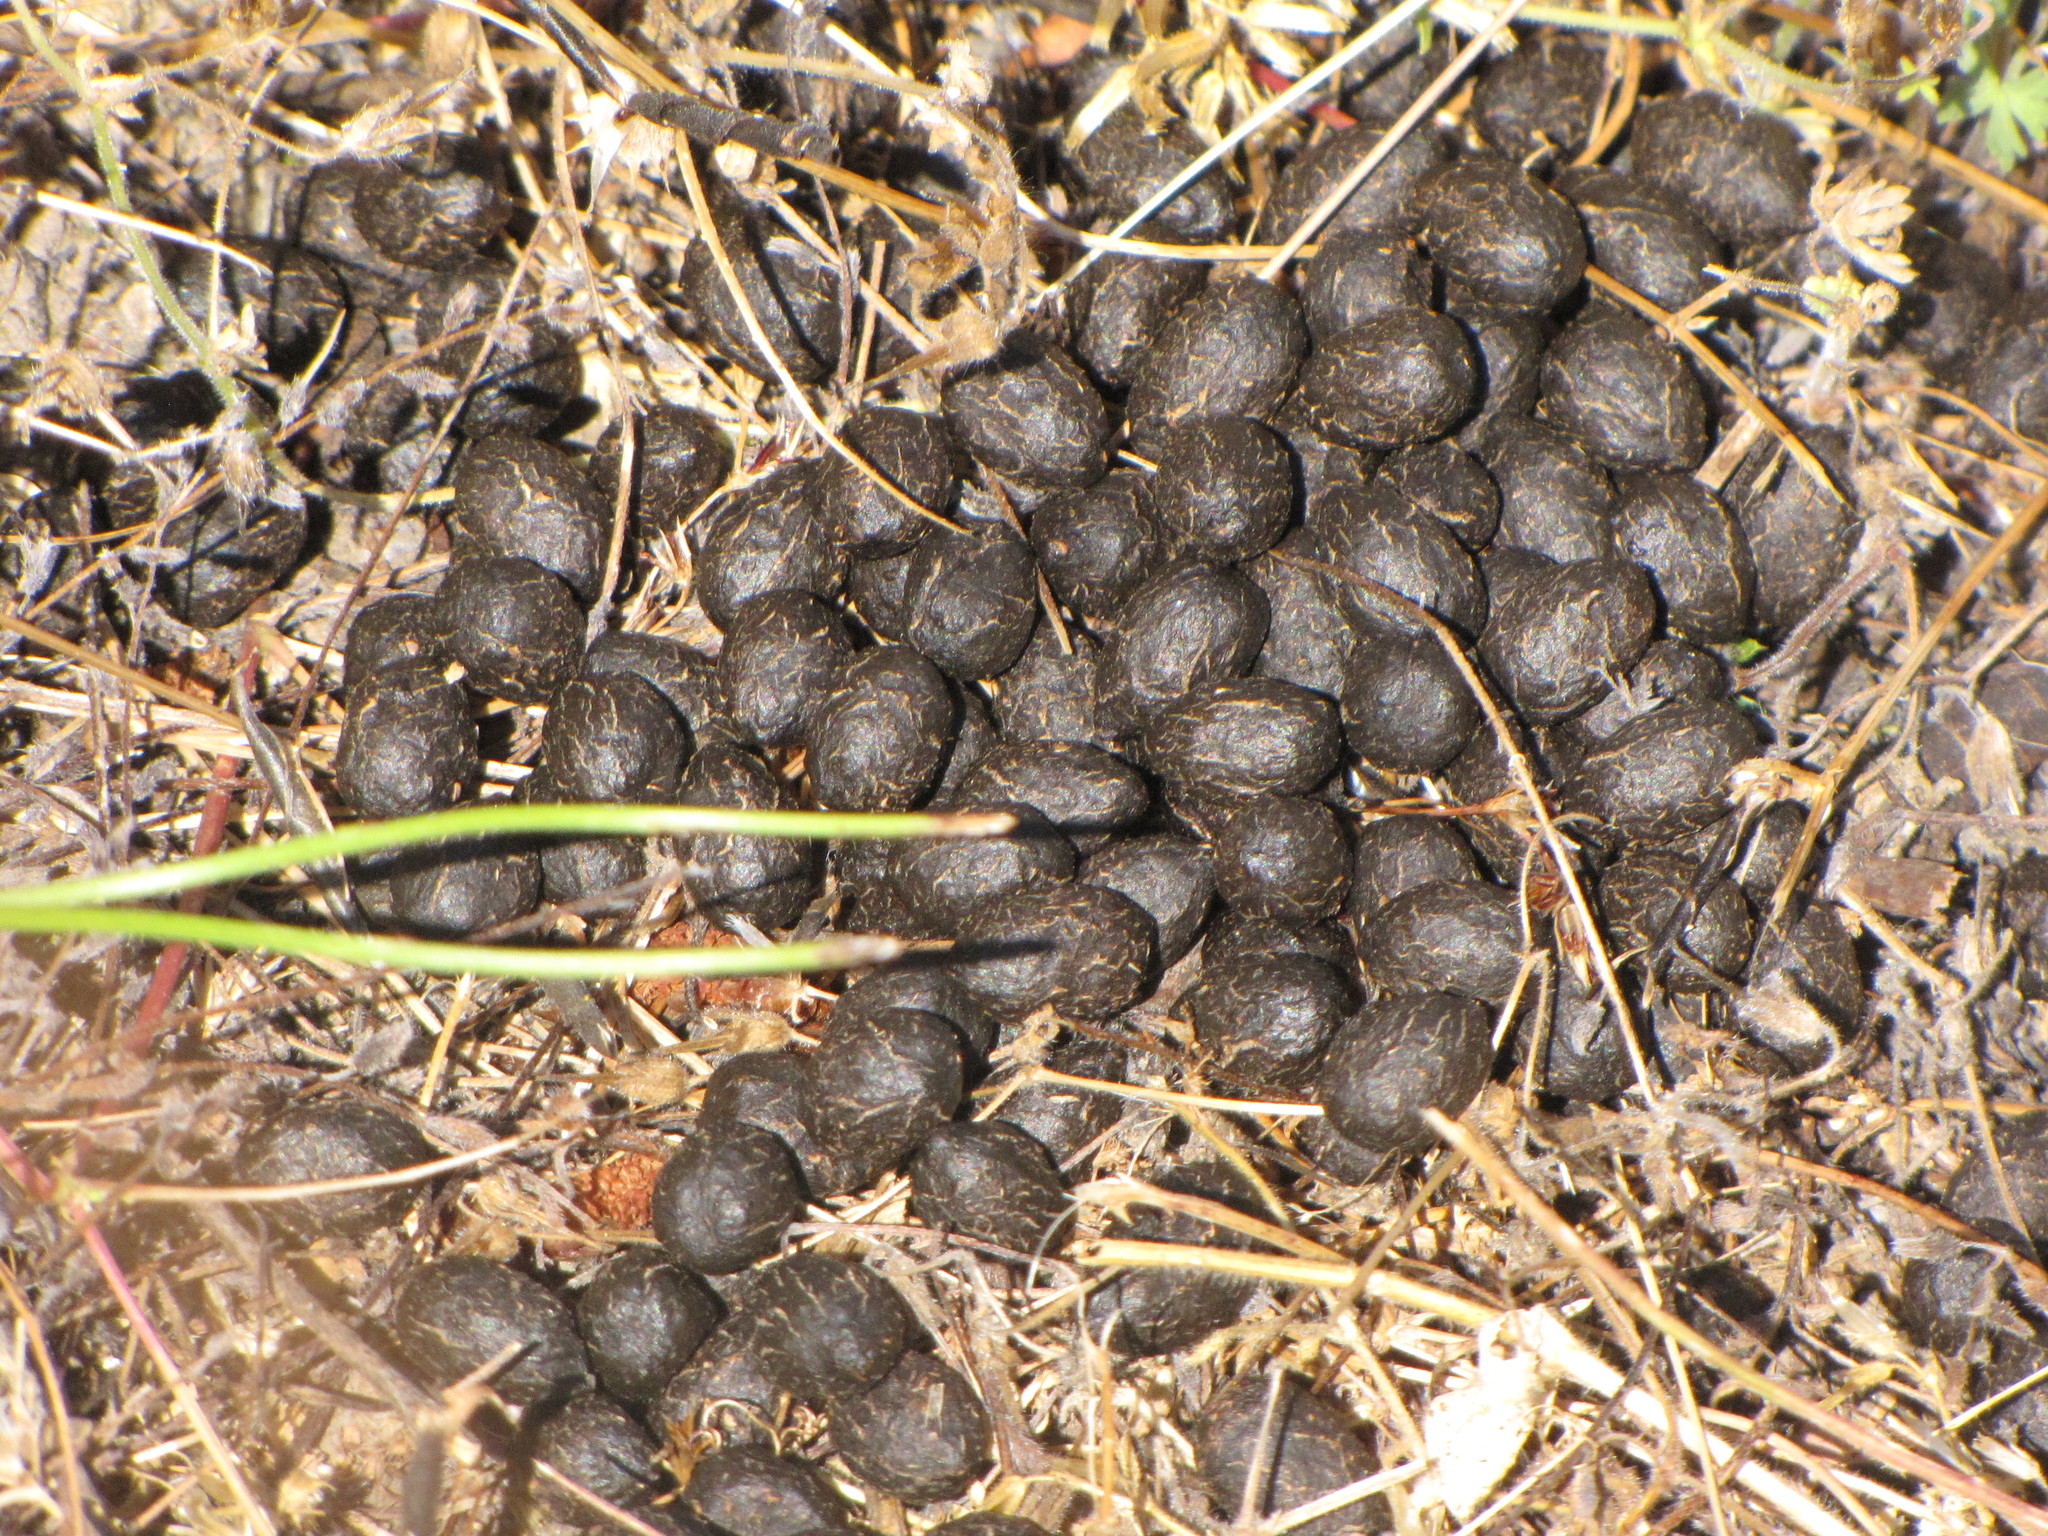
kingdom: Animalia
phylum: Chordata
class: Mammalia
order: Artiodactyla
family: Cervidae
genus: Odocoileus
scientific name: Odocoileus hemionus
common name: Mule deer
